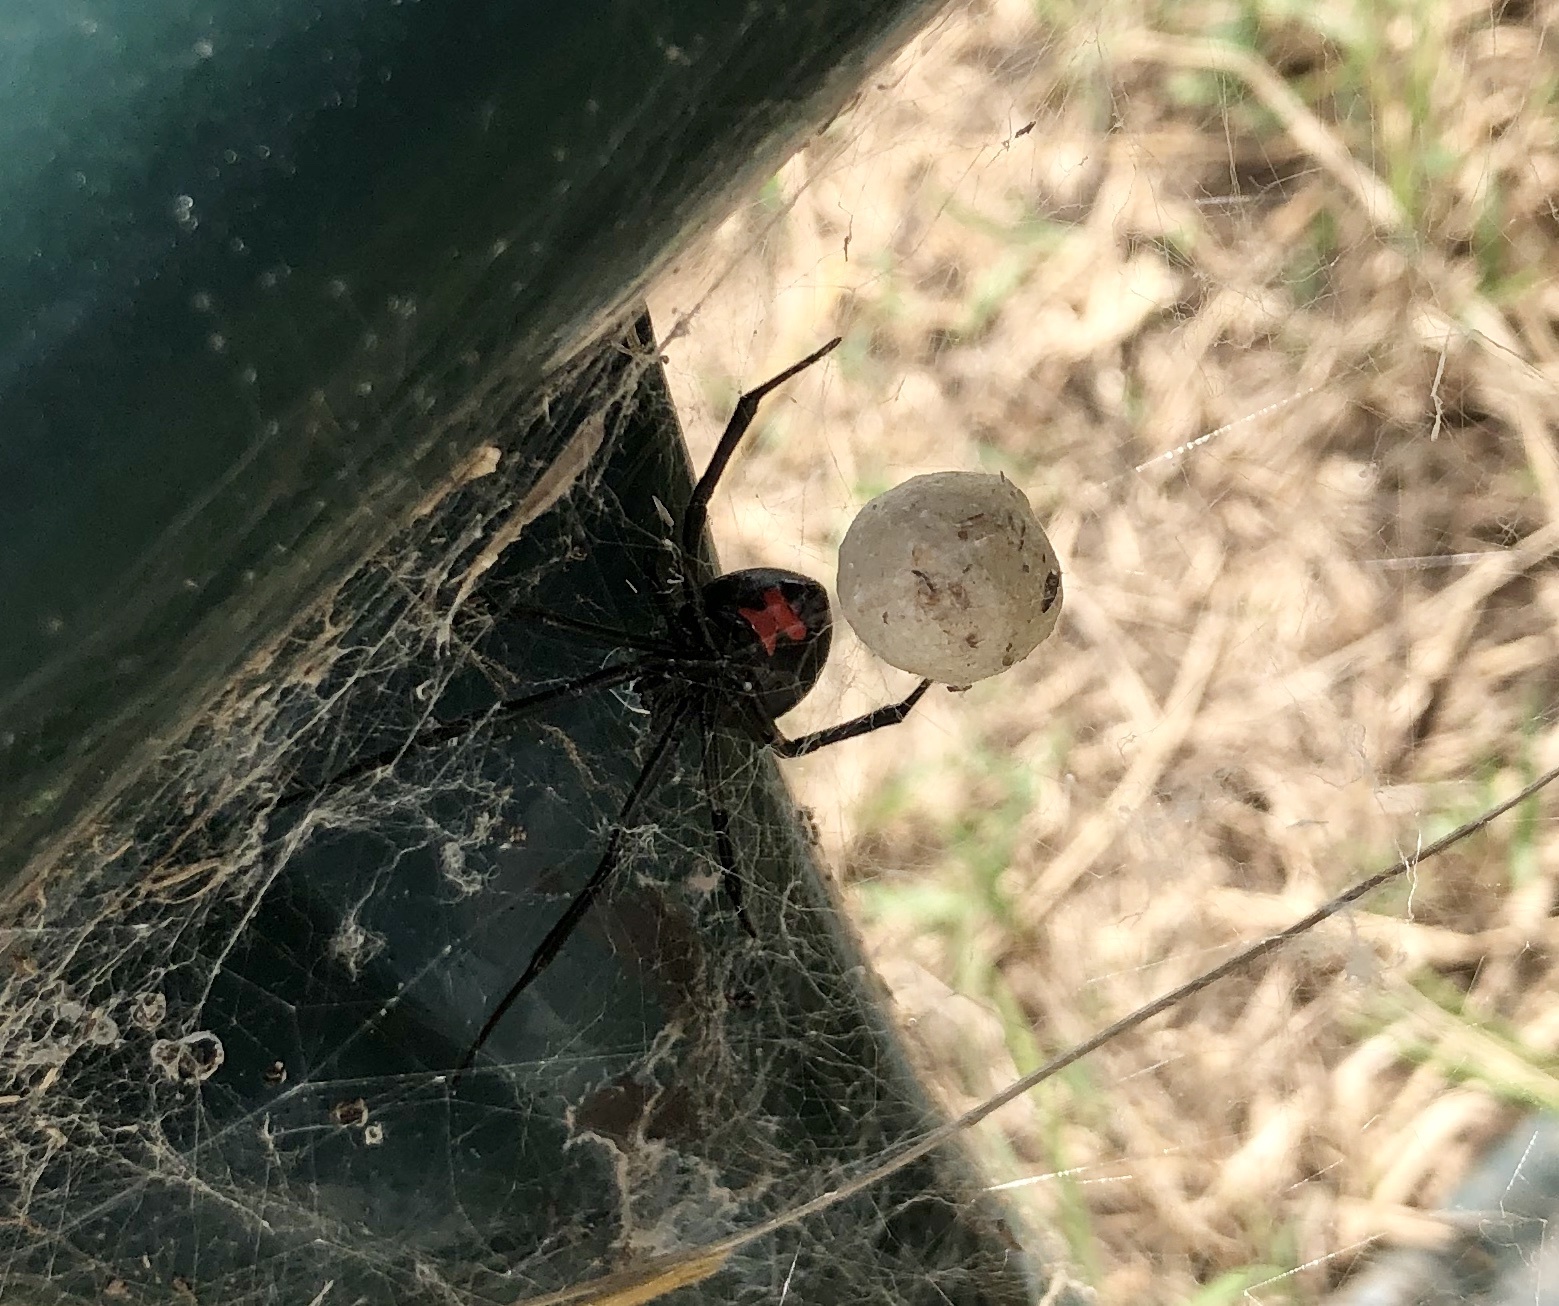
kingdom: Animalia
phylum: Arthropoda
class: Arachnida
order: Araneae
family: Theridiidae
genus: Latrodectus
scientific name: Latrodectus mactans
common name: Cobweb spiders
